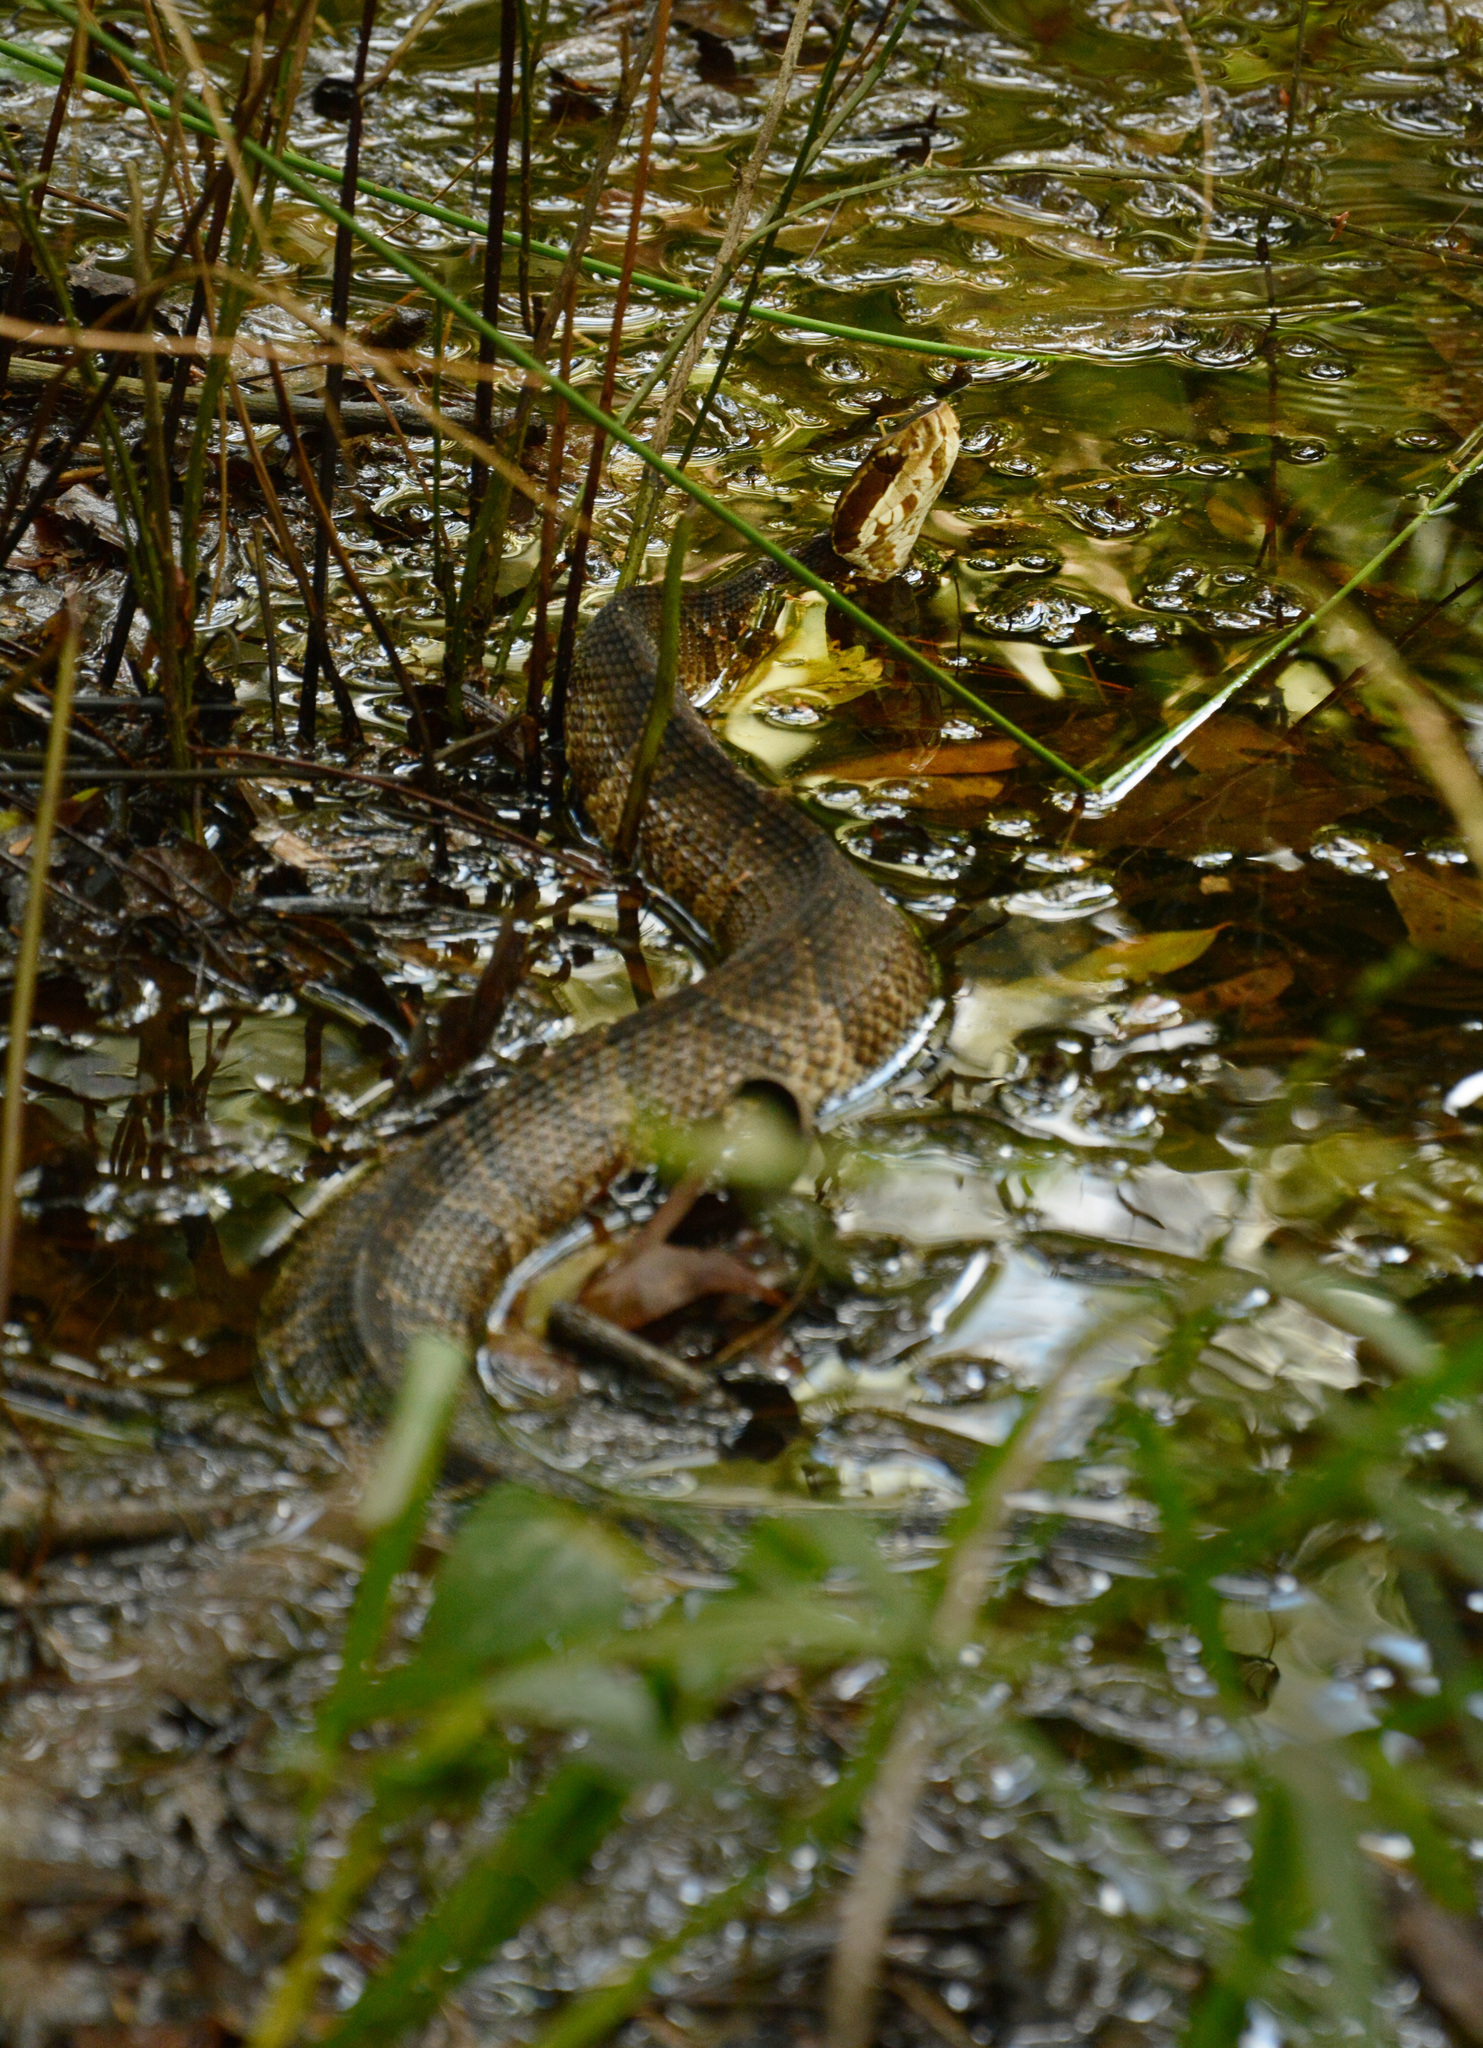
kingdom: Animalia
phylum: Chordata
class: Squamata
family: Viperidae
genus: Agkistrodon
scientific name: Agkistrodon conanti
